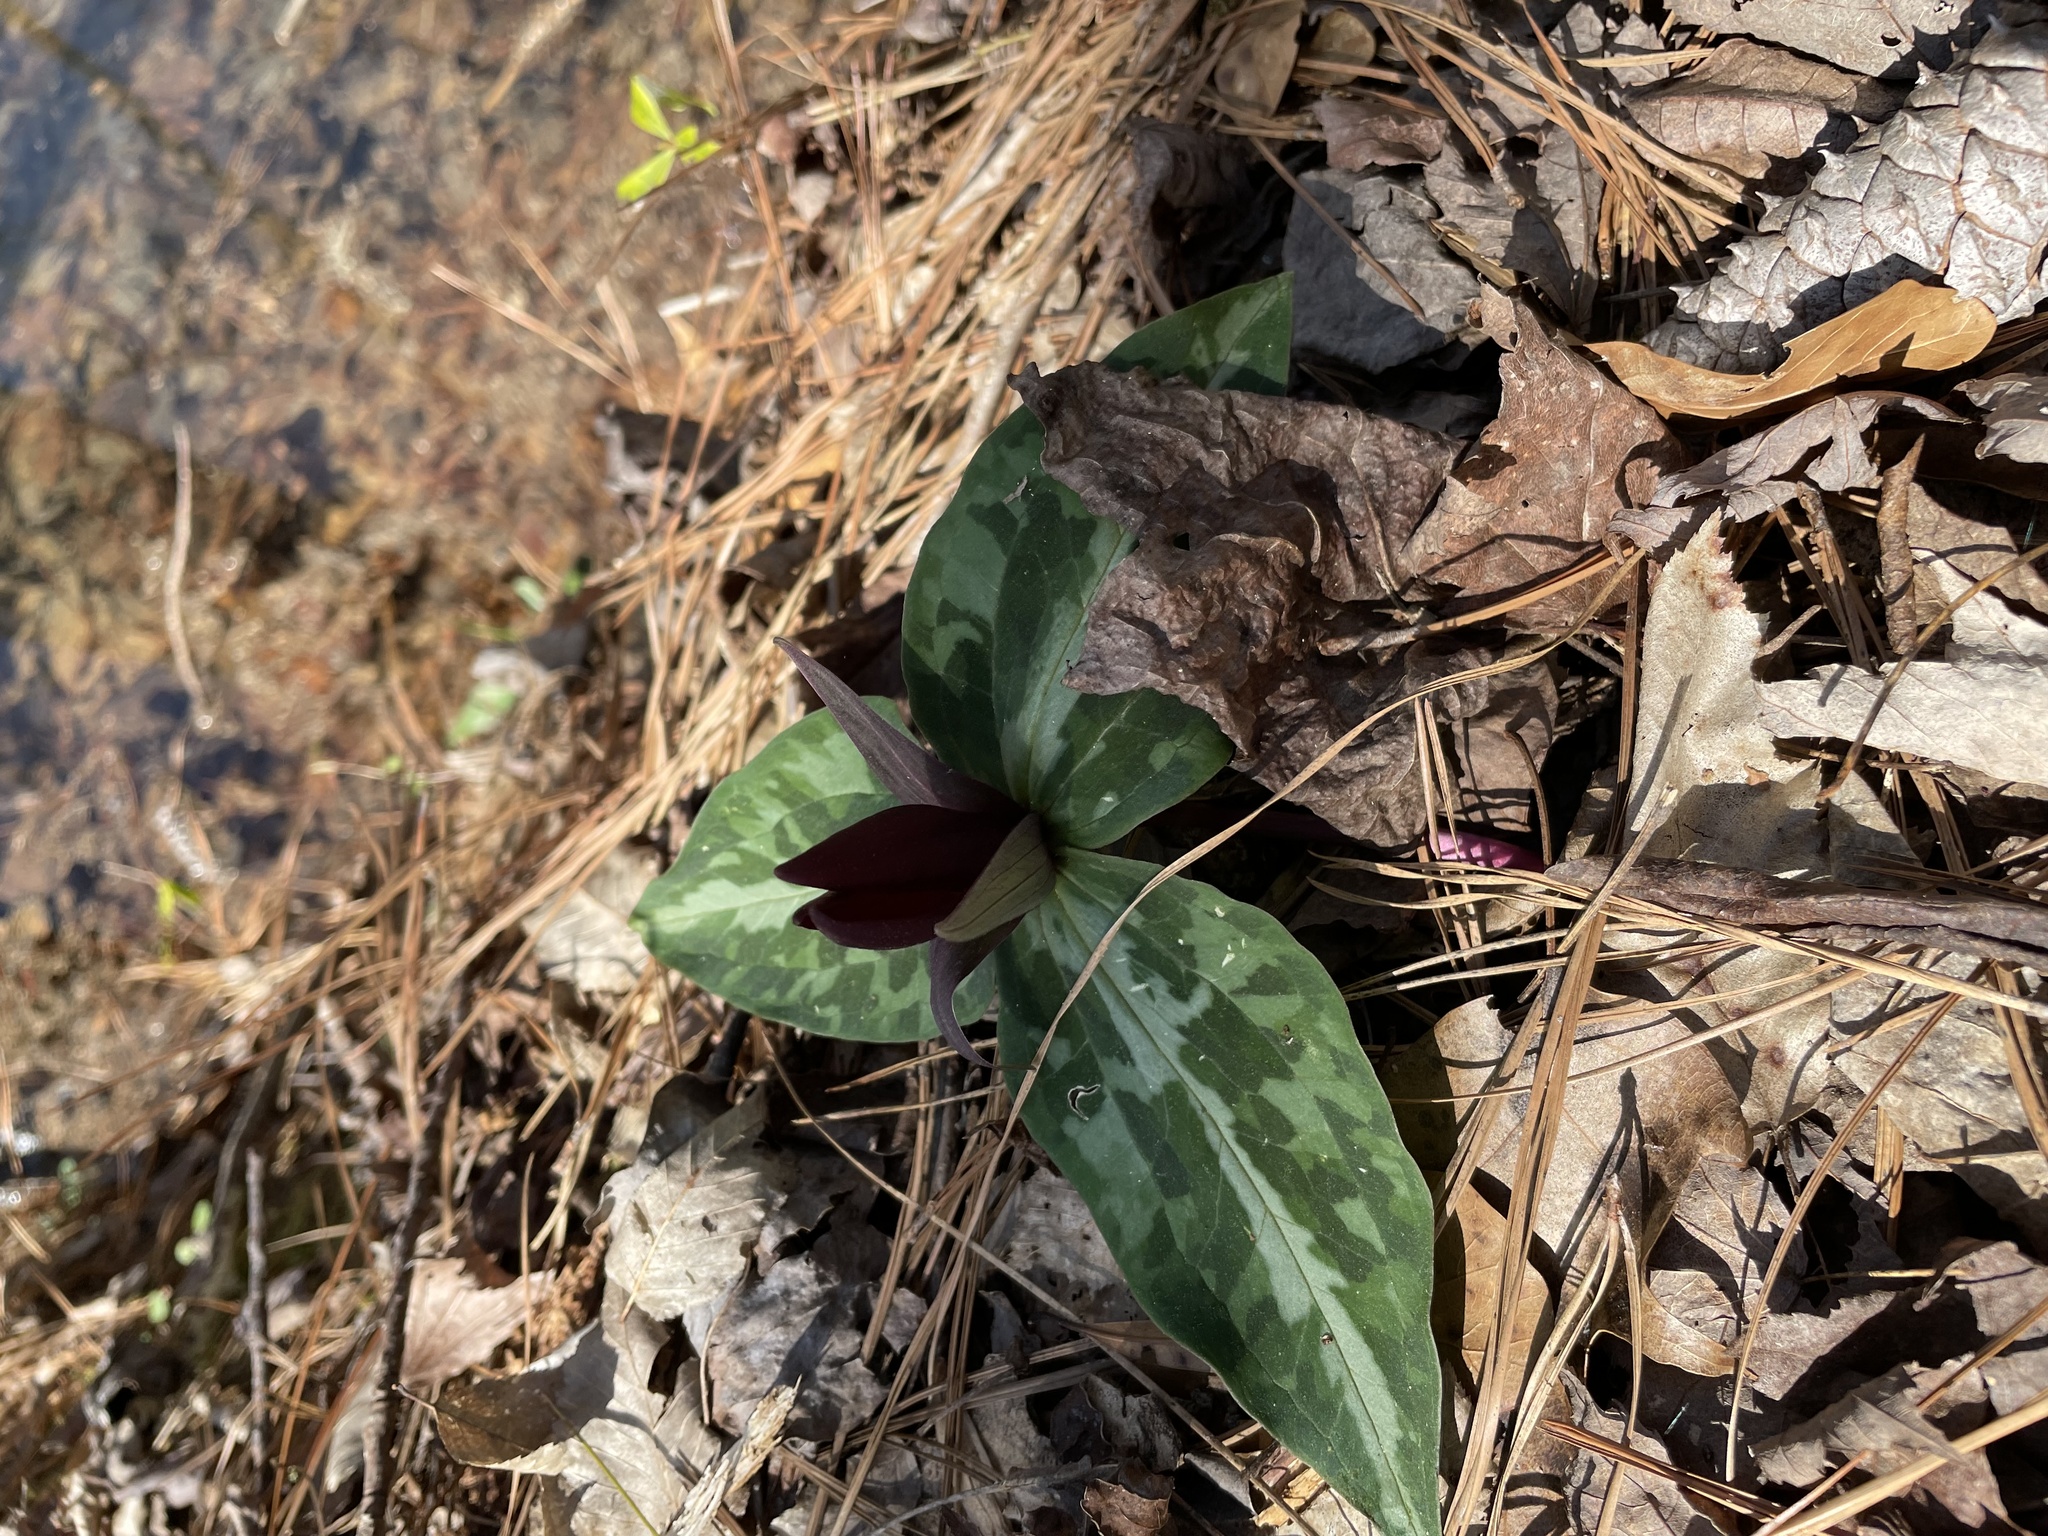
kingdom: Plantae
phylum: Tracheophyta
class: Liliopsida
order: Liliales
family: Melanthiaceae
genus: Trillium
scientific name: Trillium underwoodii
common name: Longbract wakerobin
